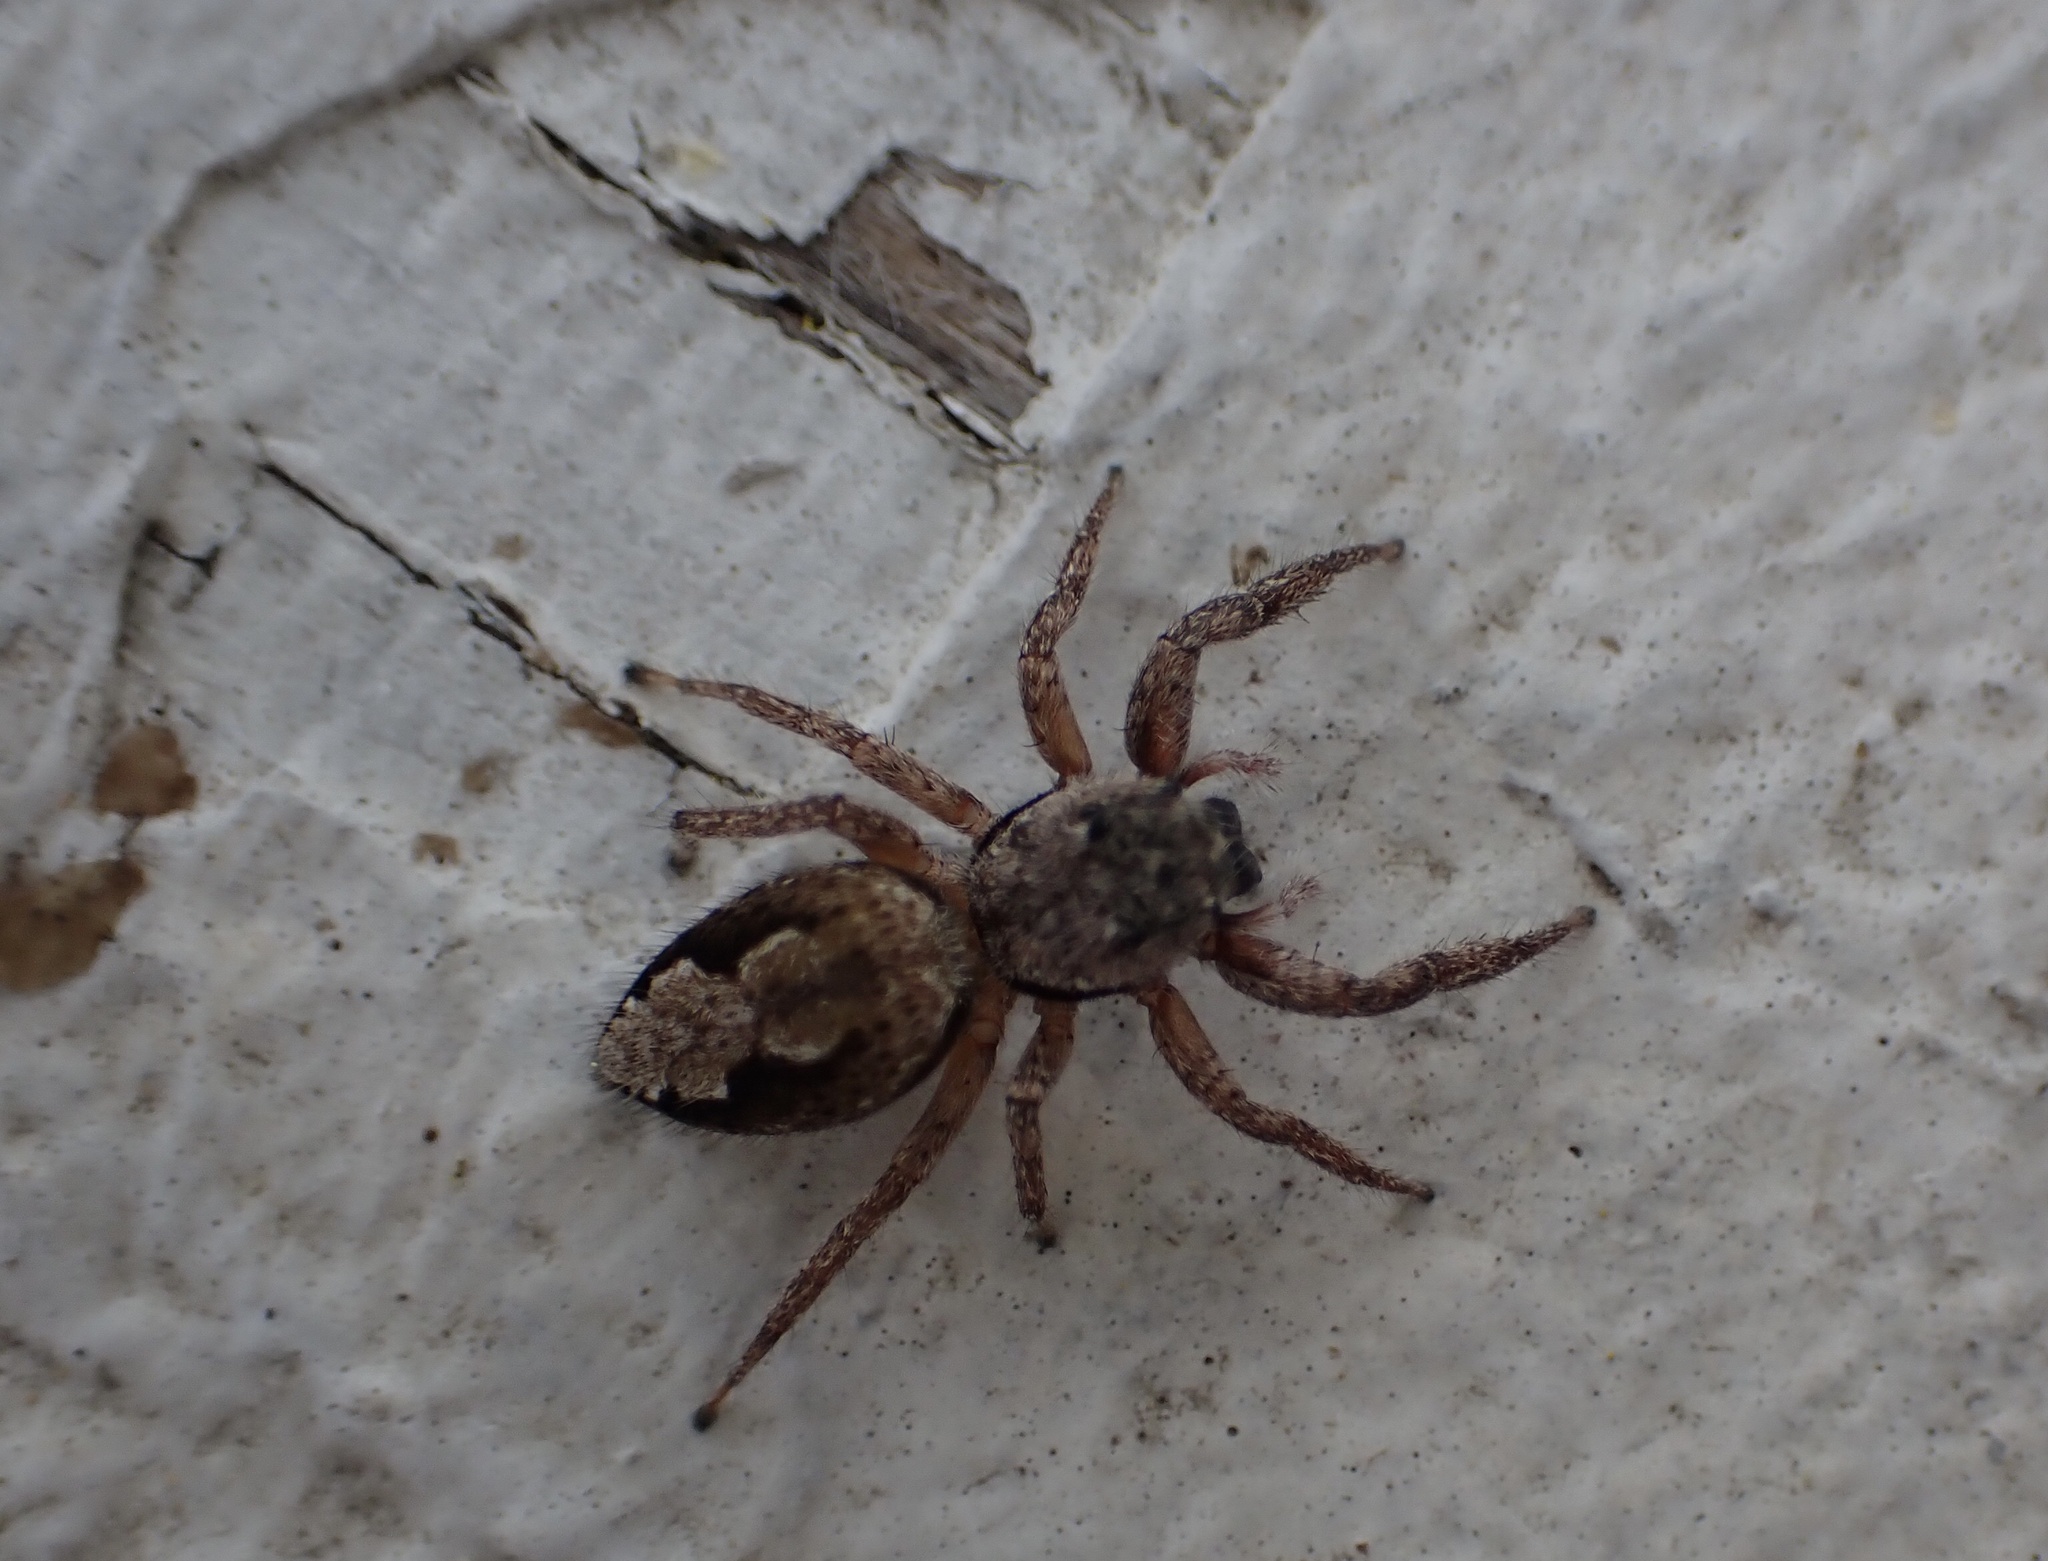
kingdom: Animalia
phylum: Arthropoda
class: Arachnida
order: Araneae
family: Salticidae
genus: Platycryptus
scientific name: Platycryptus undatus
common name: Tan jumping spider
